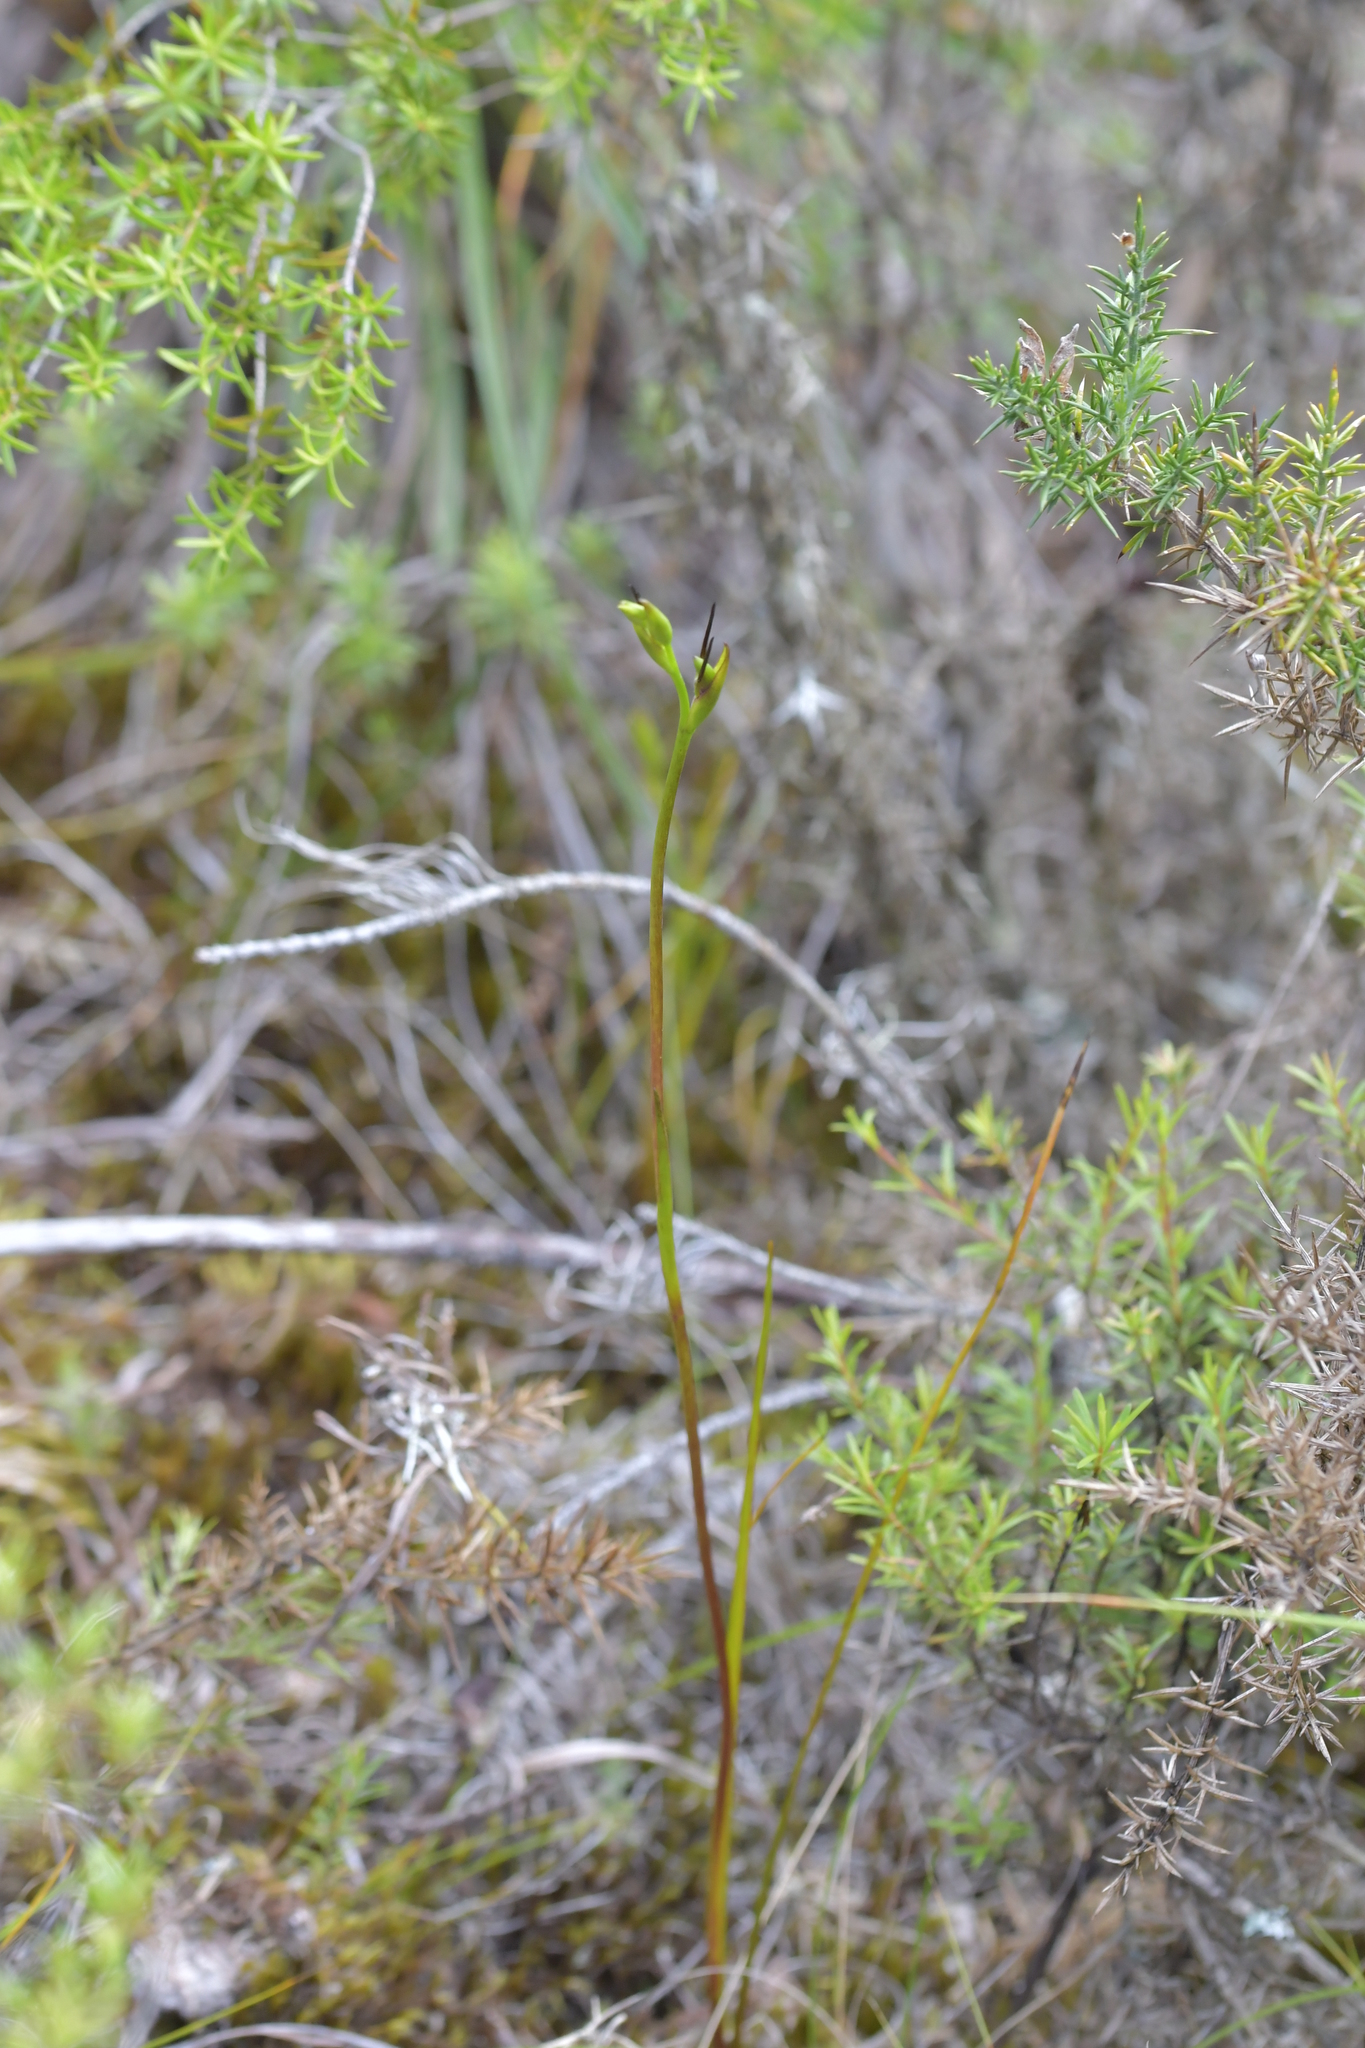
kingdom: Plantae
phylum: Tracheophyta
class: Liliopsida
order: Asparagales
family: Orchidaceae
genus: Orthoceras
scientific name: Orthoceras novae-zeelandiae
